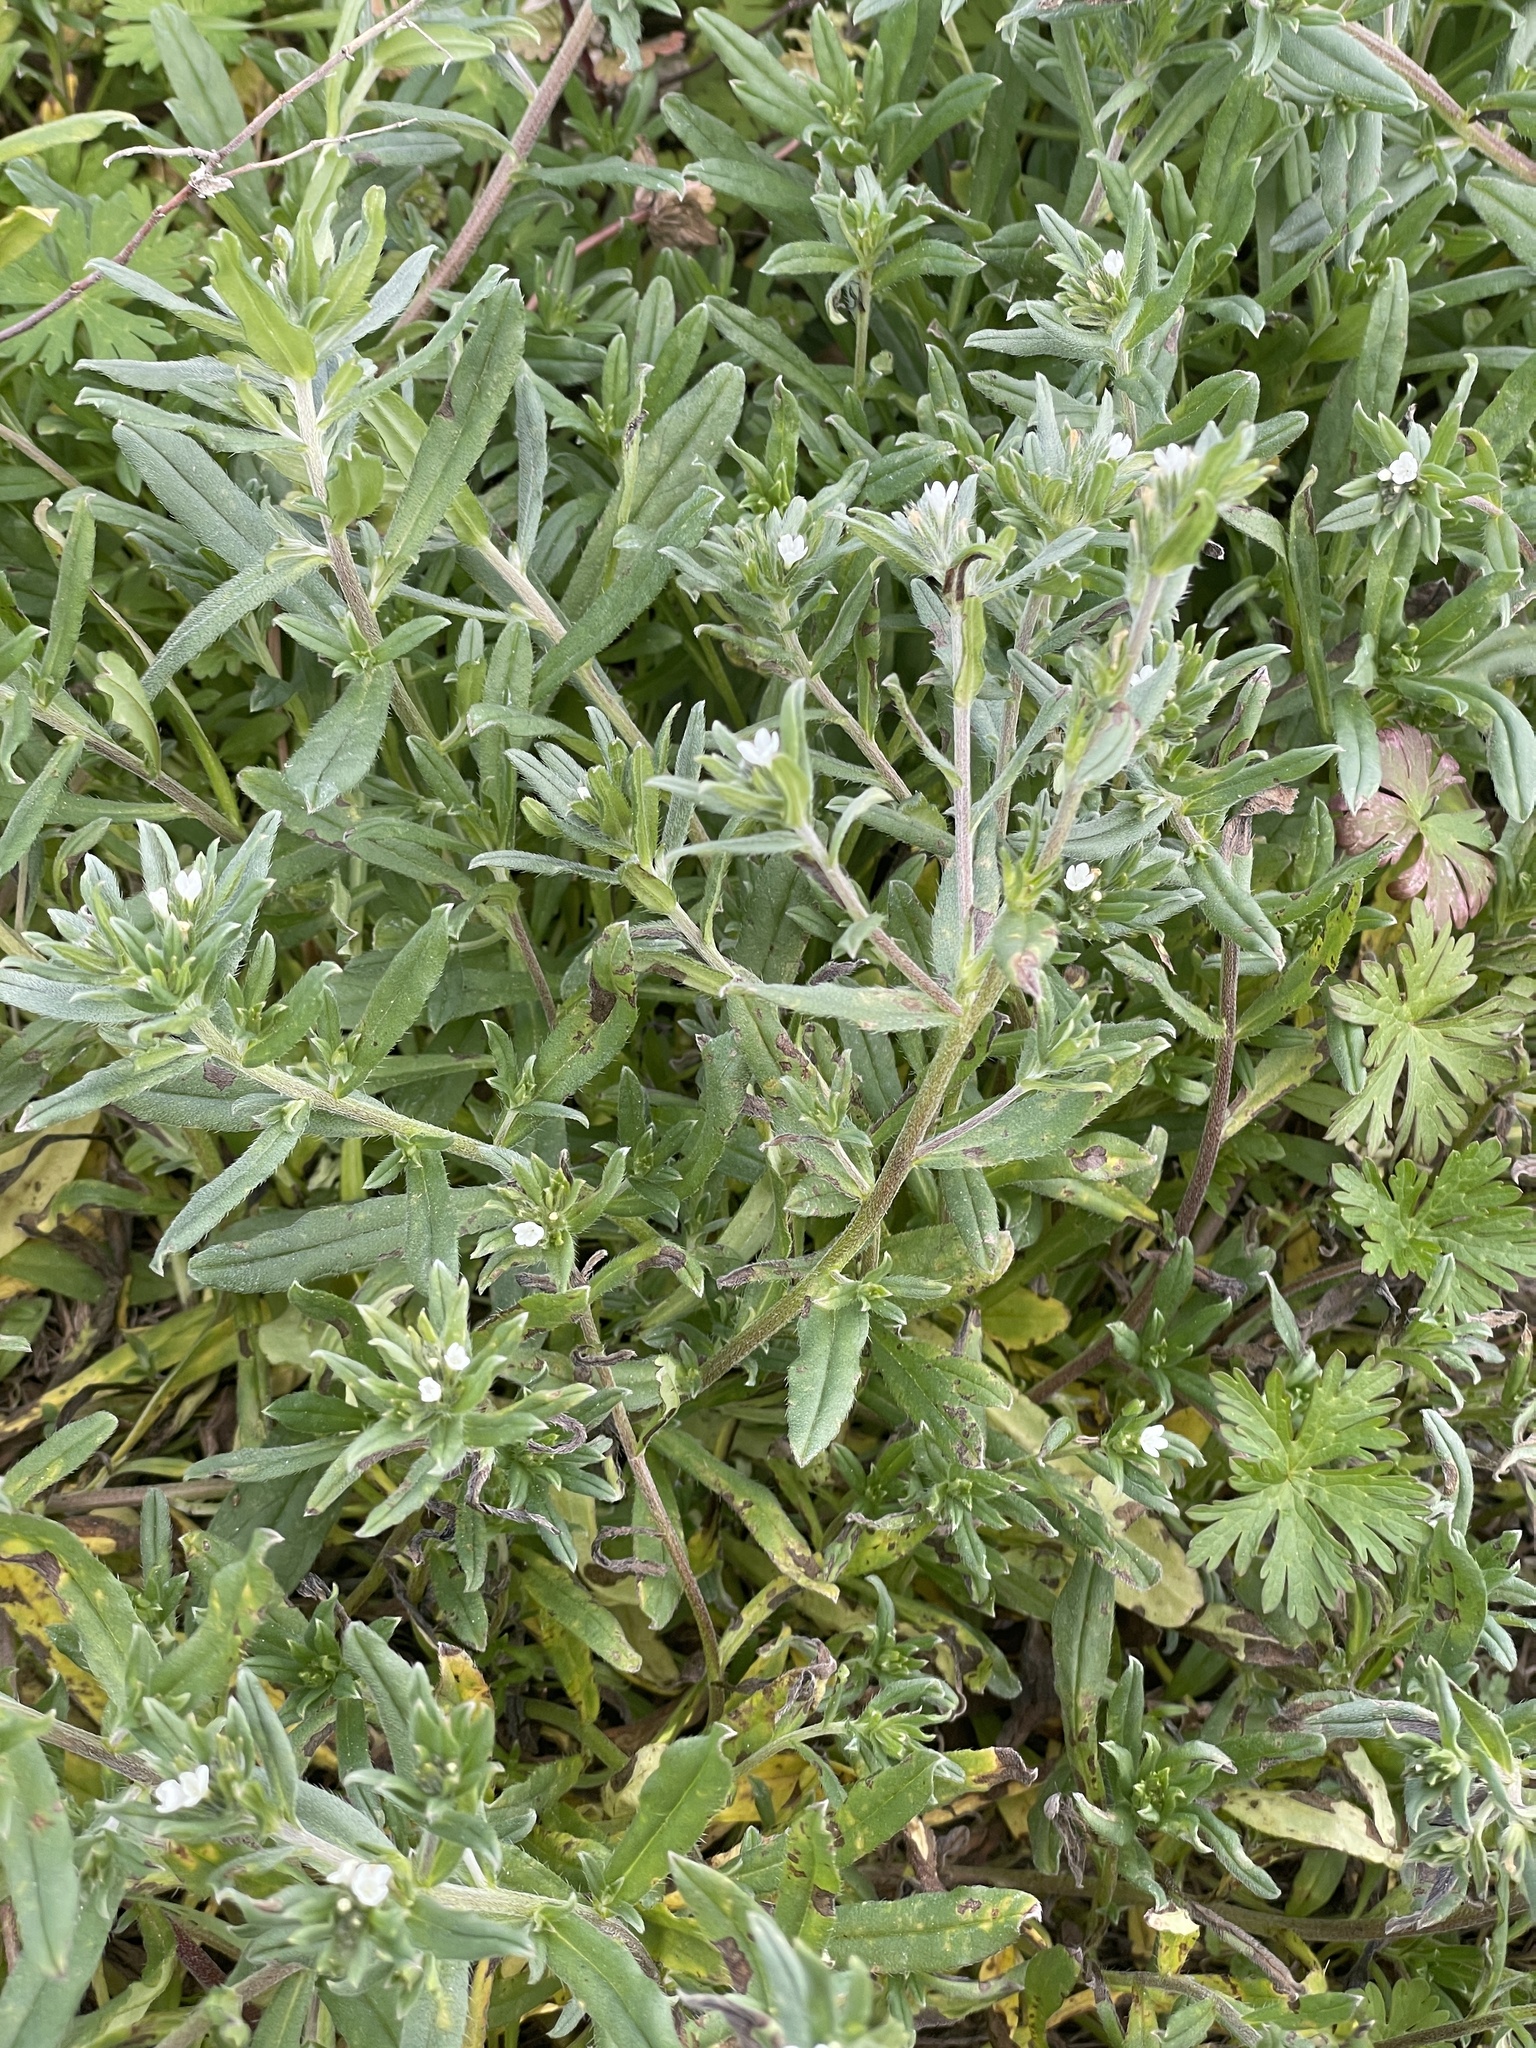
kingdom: Plantae
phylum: Tracheophyta
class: Magnoliopsida
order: Boraginales
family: Boraginaceae
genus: Buglossoides
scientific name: Buglossoides arvensis
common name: Corn gromwell
